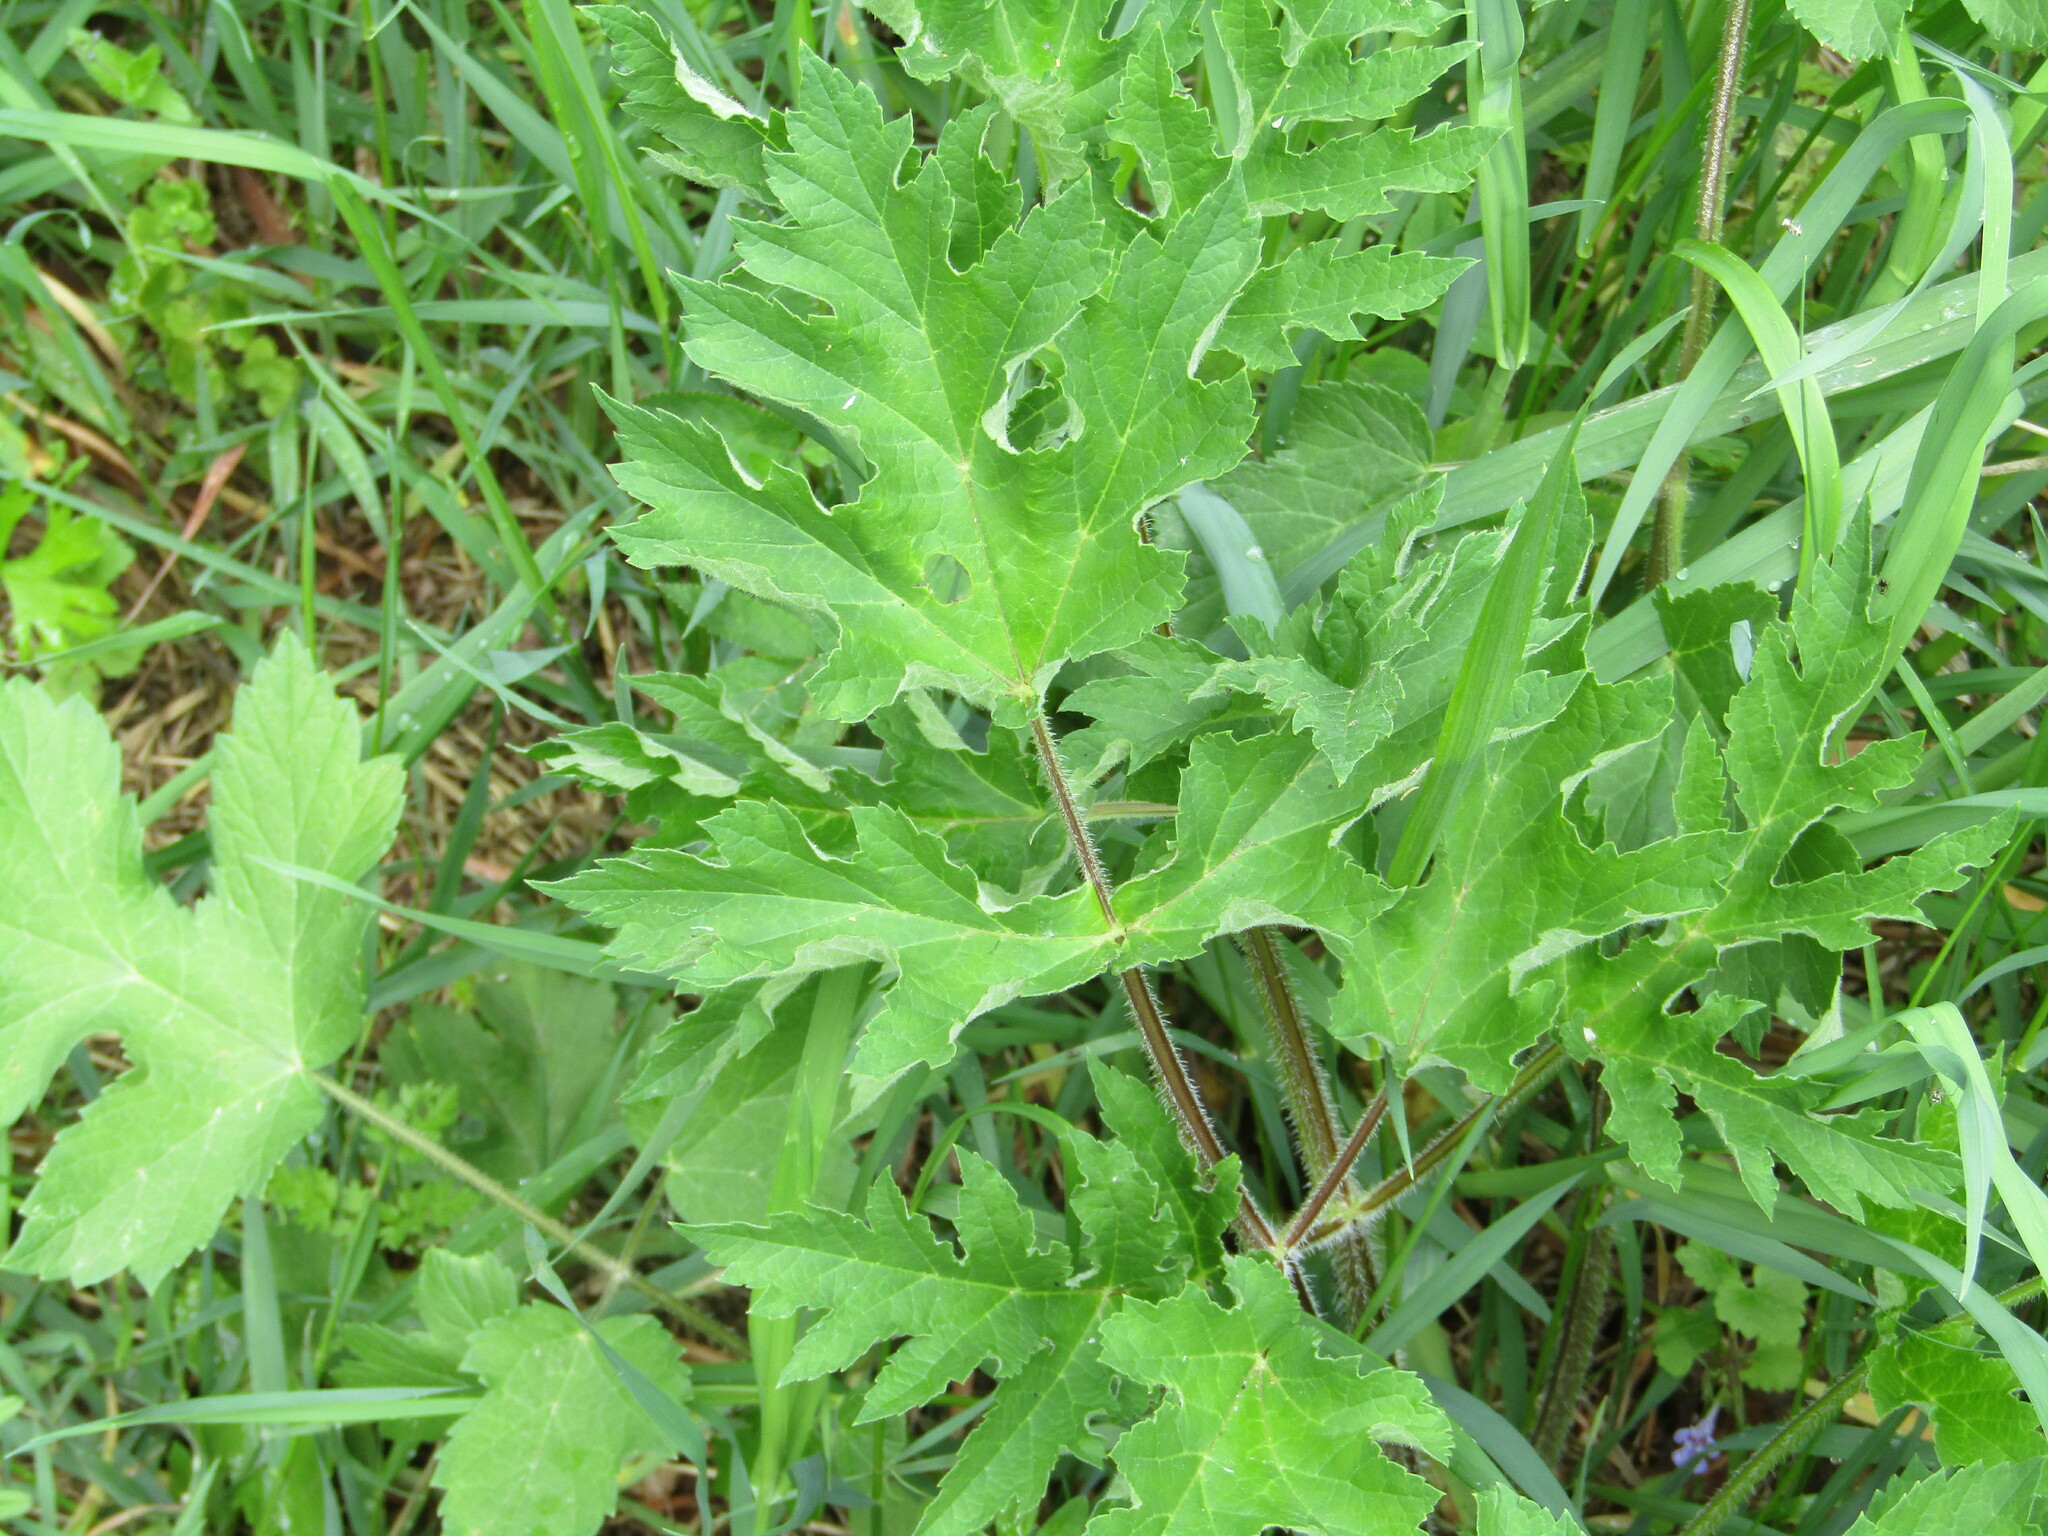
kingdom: Plantae
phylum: Tracheophyta
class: Magnoliopsida
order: Apiales
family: Apiaceae
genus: Heracleum
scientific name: Heracleum sphondylium
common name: Hogweed
